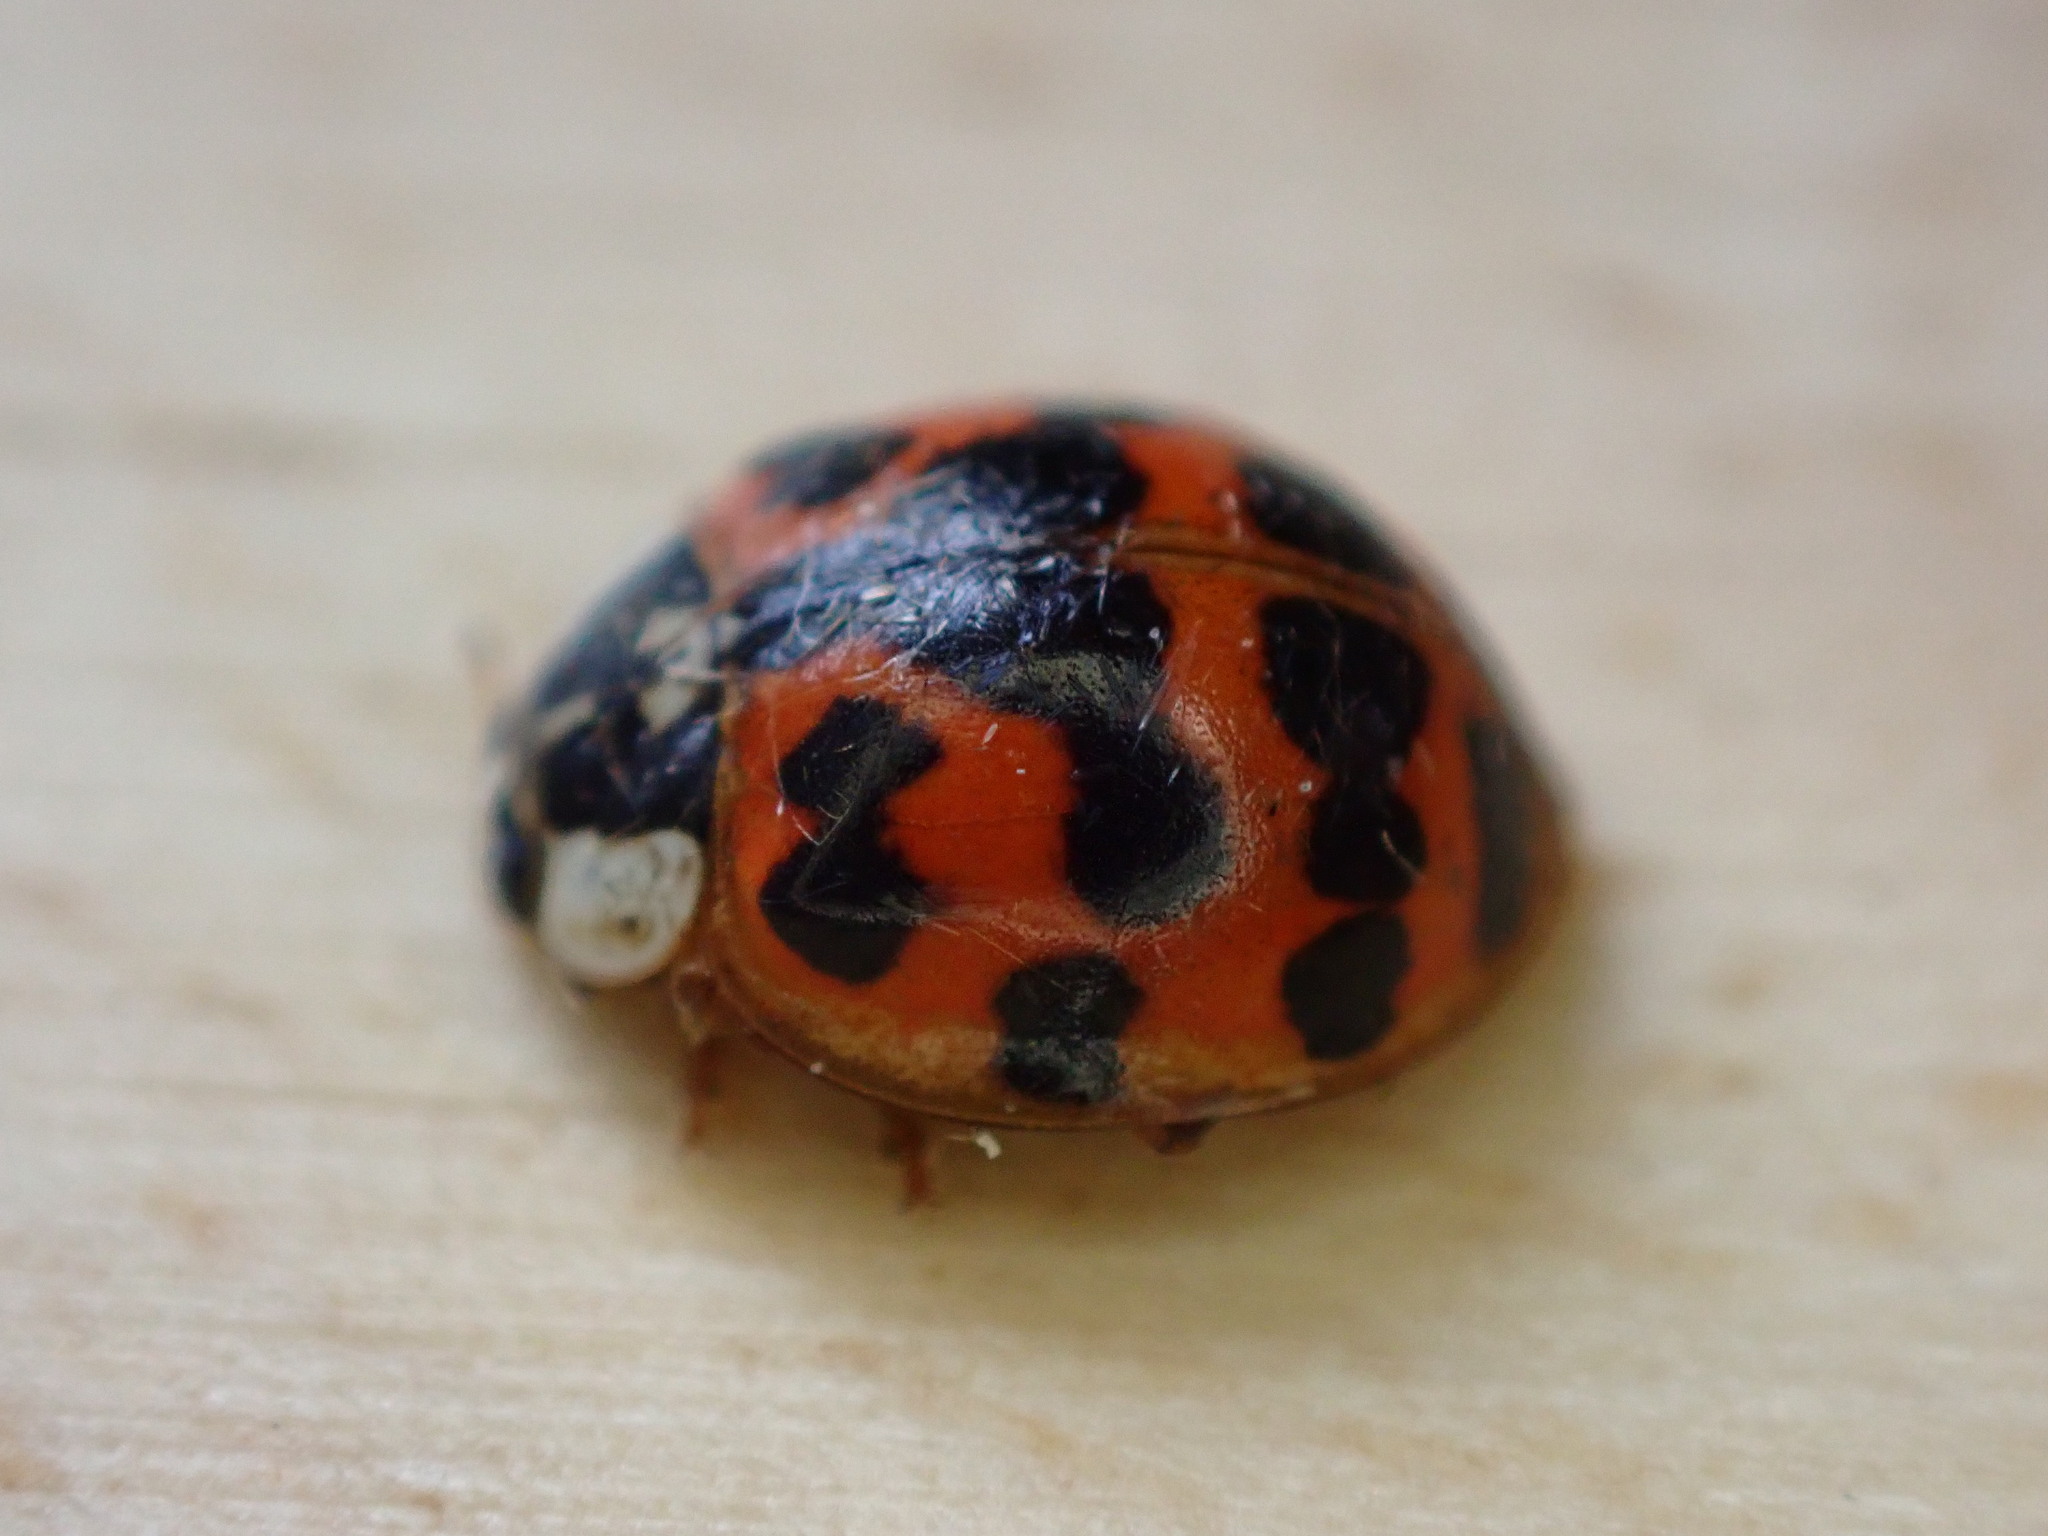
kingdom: Animalia
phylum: Arthropoda
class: Insecta
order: Coleoptera
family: Coccinellidae
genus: Harmonia
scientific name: Harmonia axyridis
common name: Harlequin ladybird
